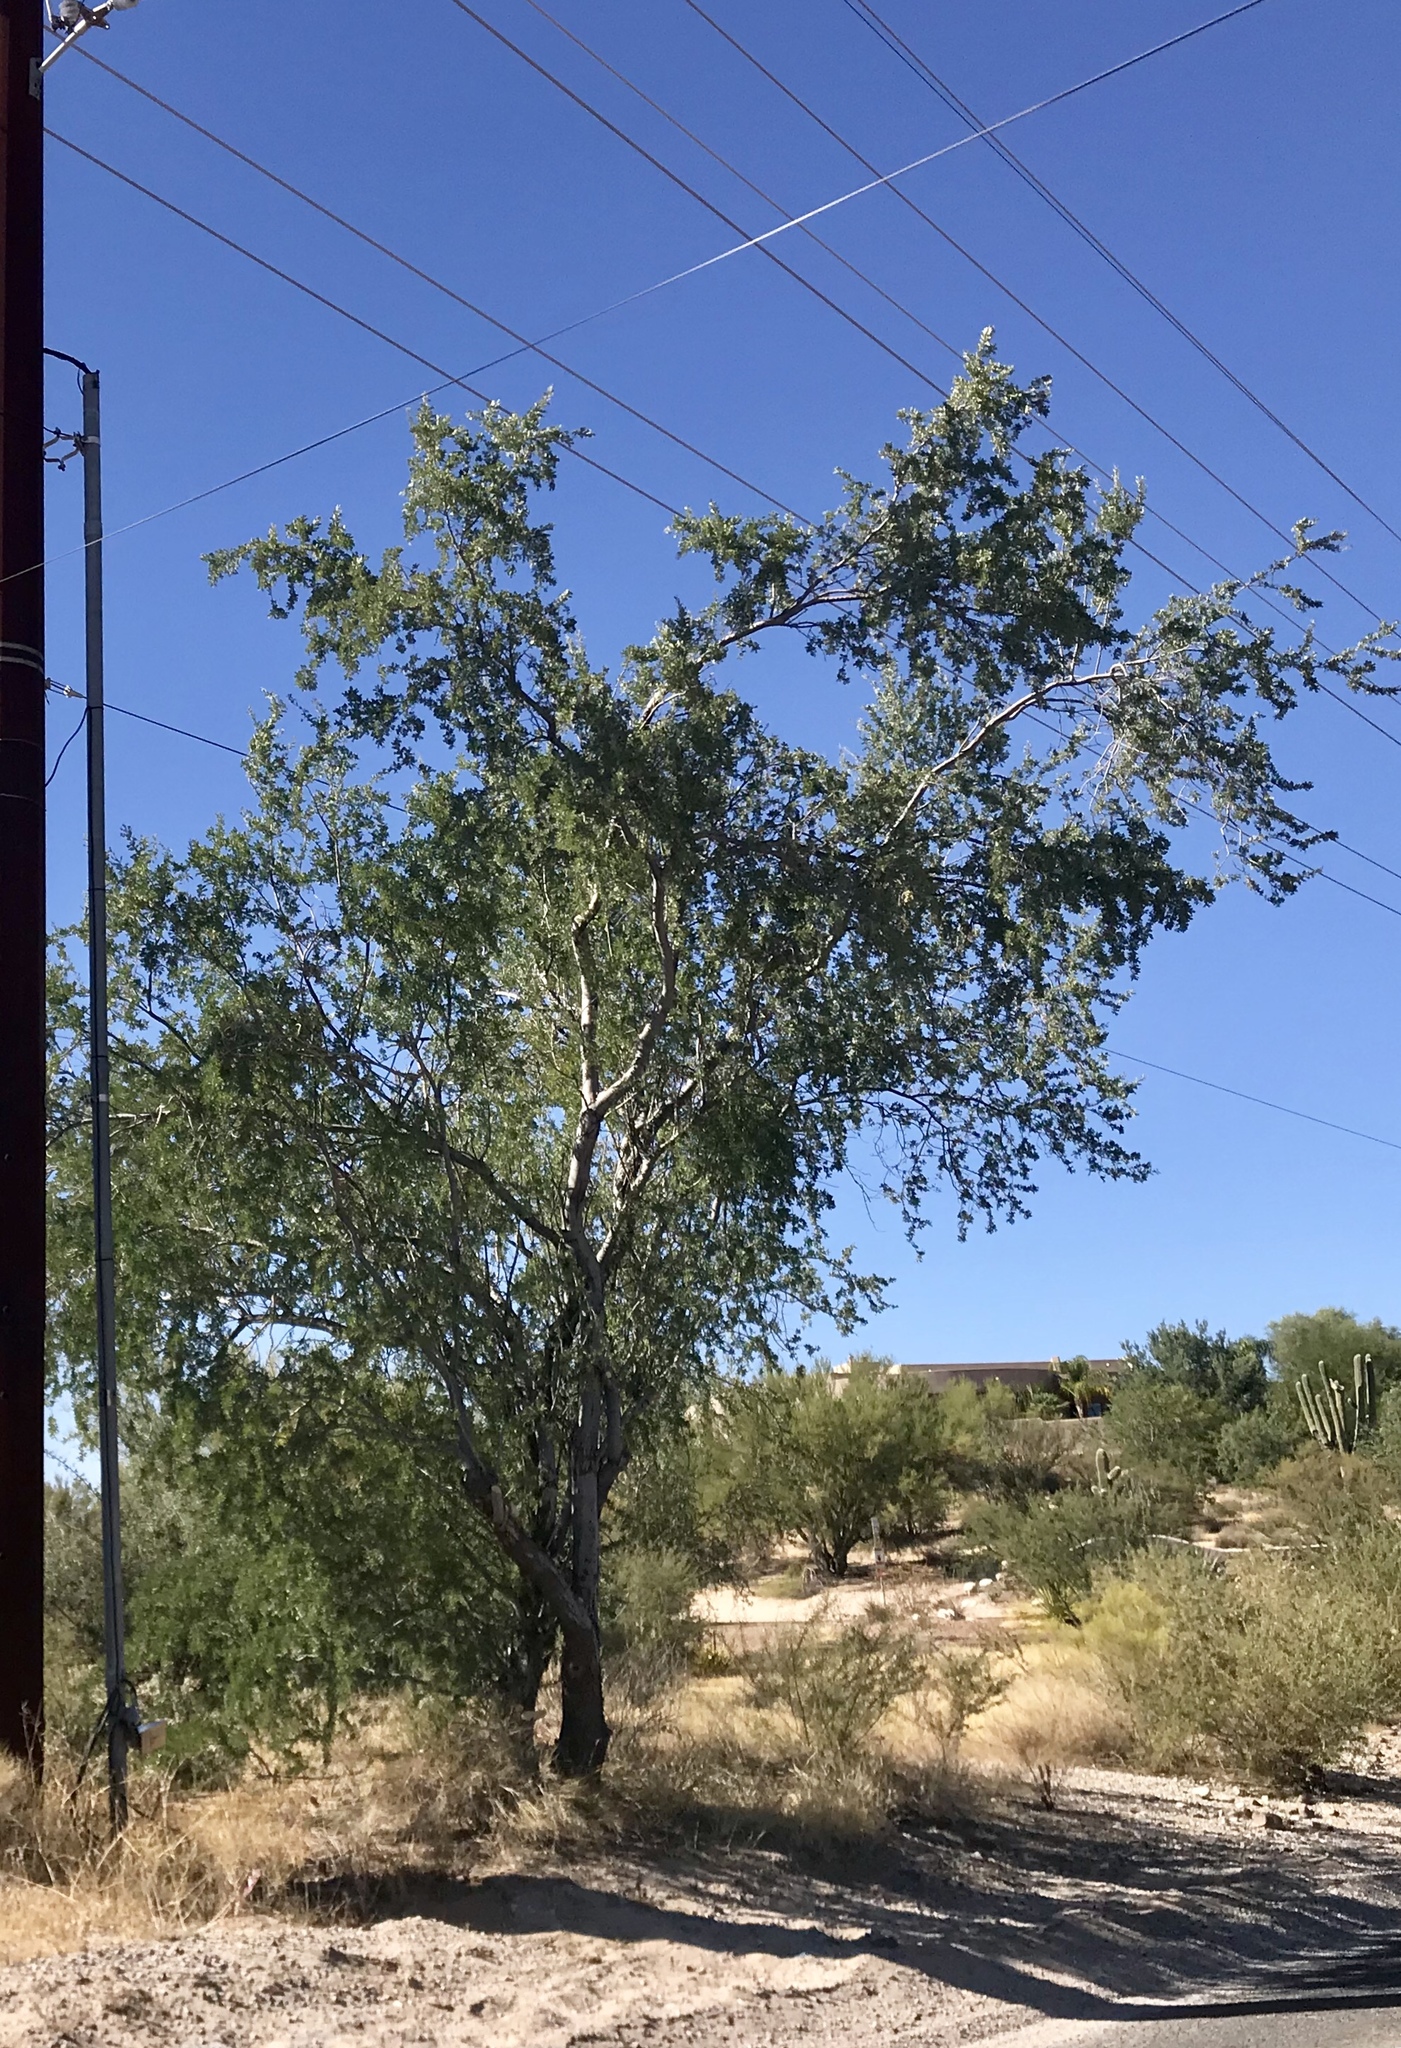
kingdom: Plantae
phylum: Tracheophyta
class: Magnoliopsida
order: Fabales
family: Fabaceae
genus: Olneya
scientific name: Olneya tesota
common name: Desert ironwood
